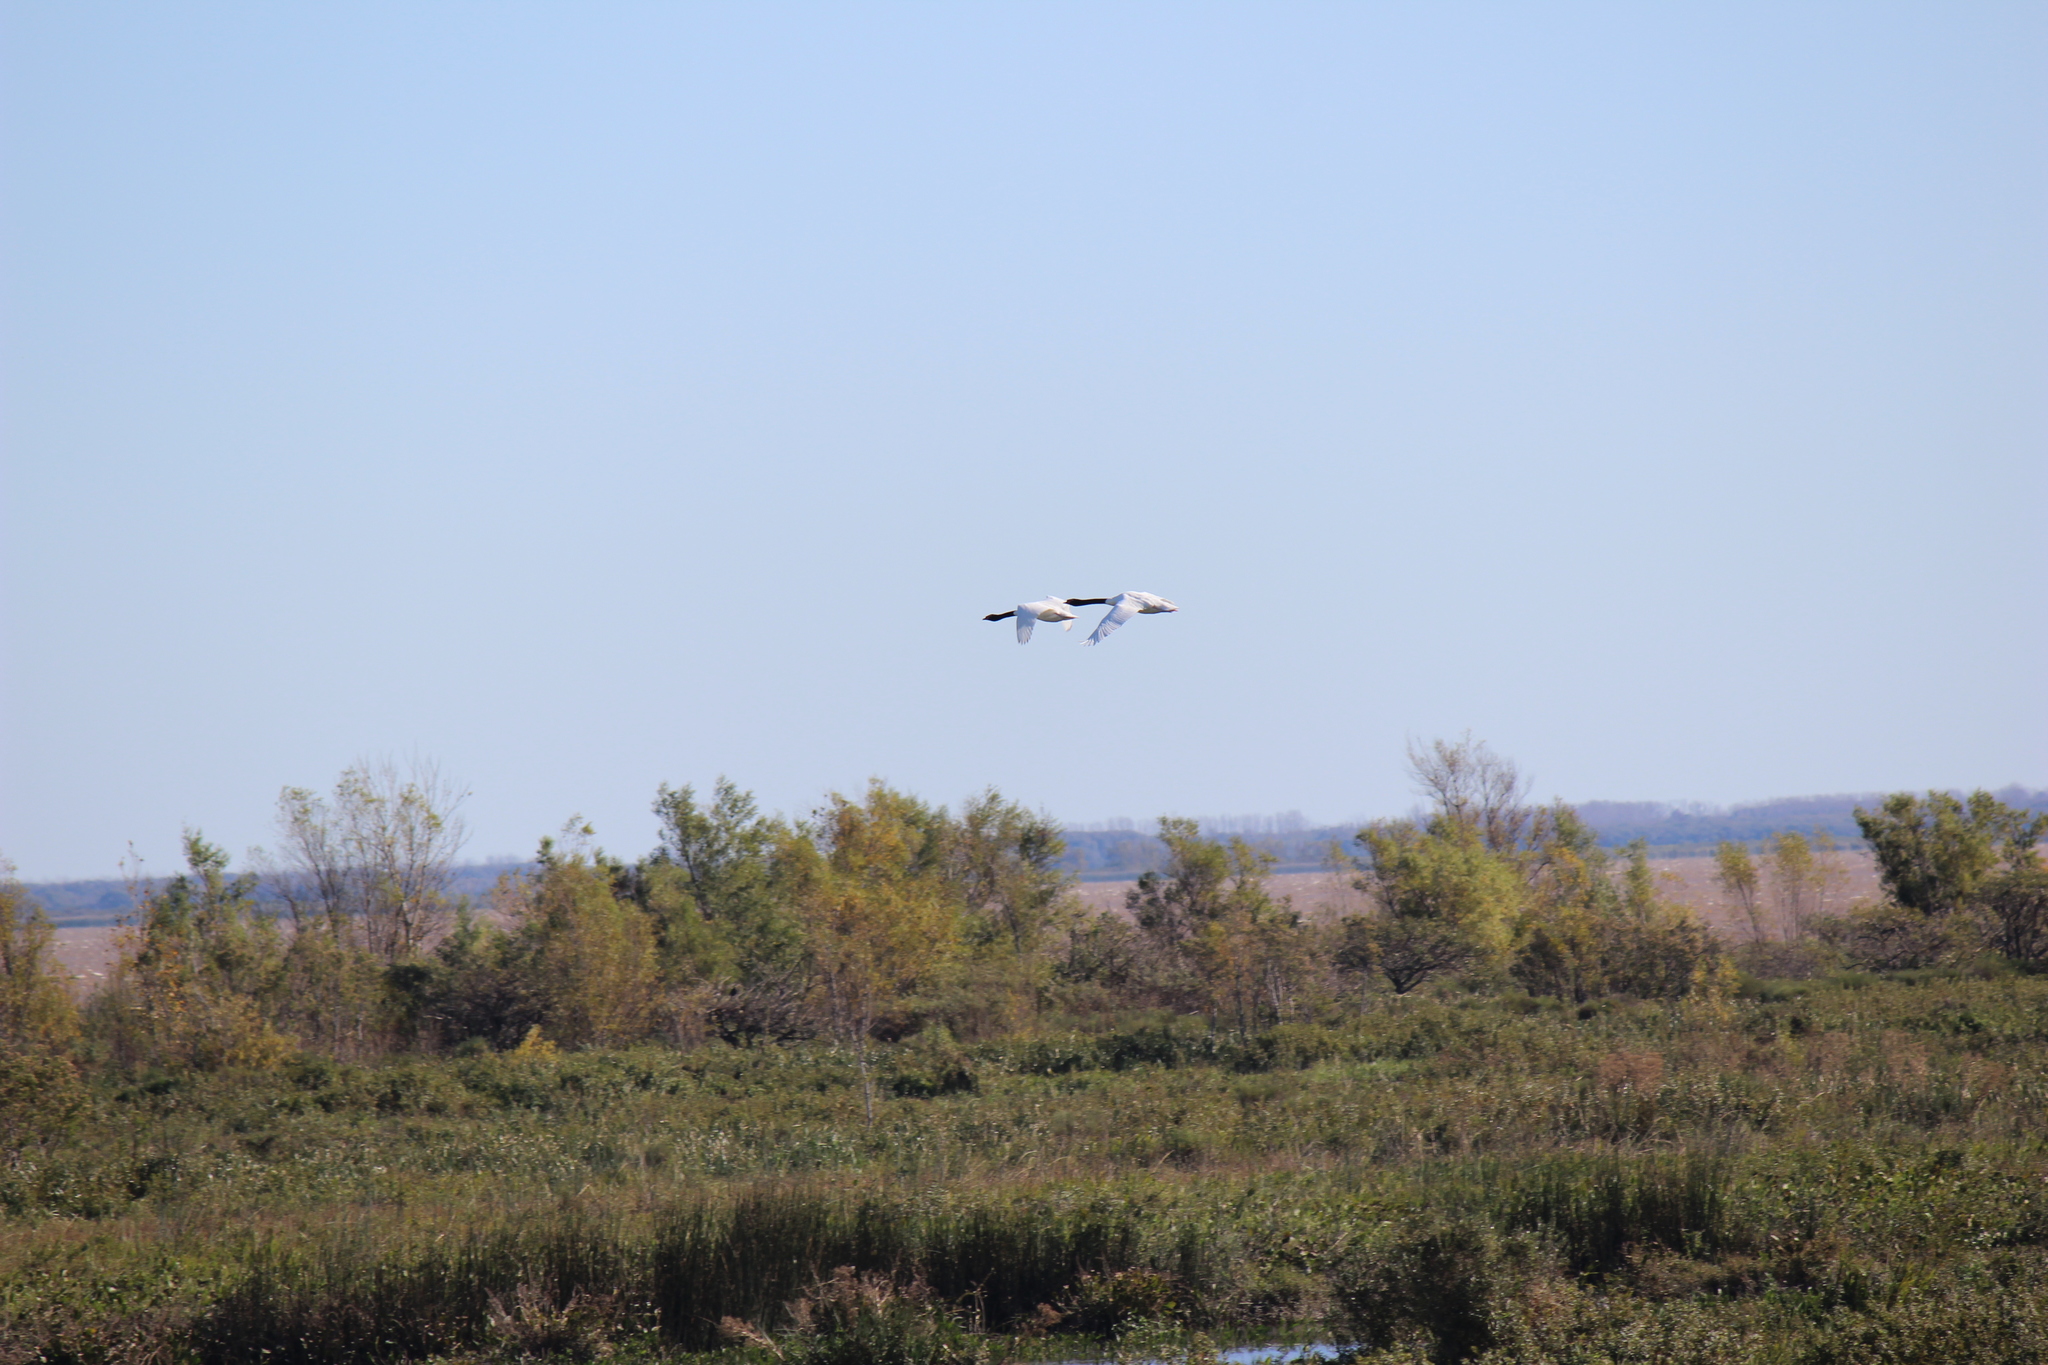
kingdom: Animalia
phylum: Chordata
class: Aves
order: Anseriformes
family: Anatidae
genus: Cygnus
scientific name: Cygnus melancoryphus
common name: Black-necked swan
